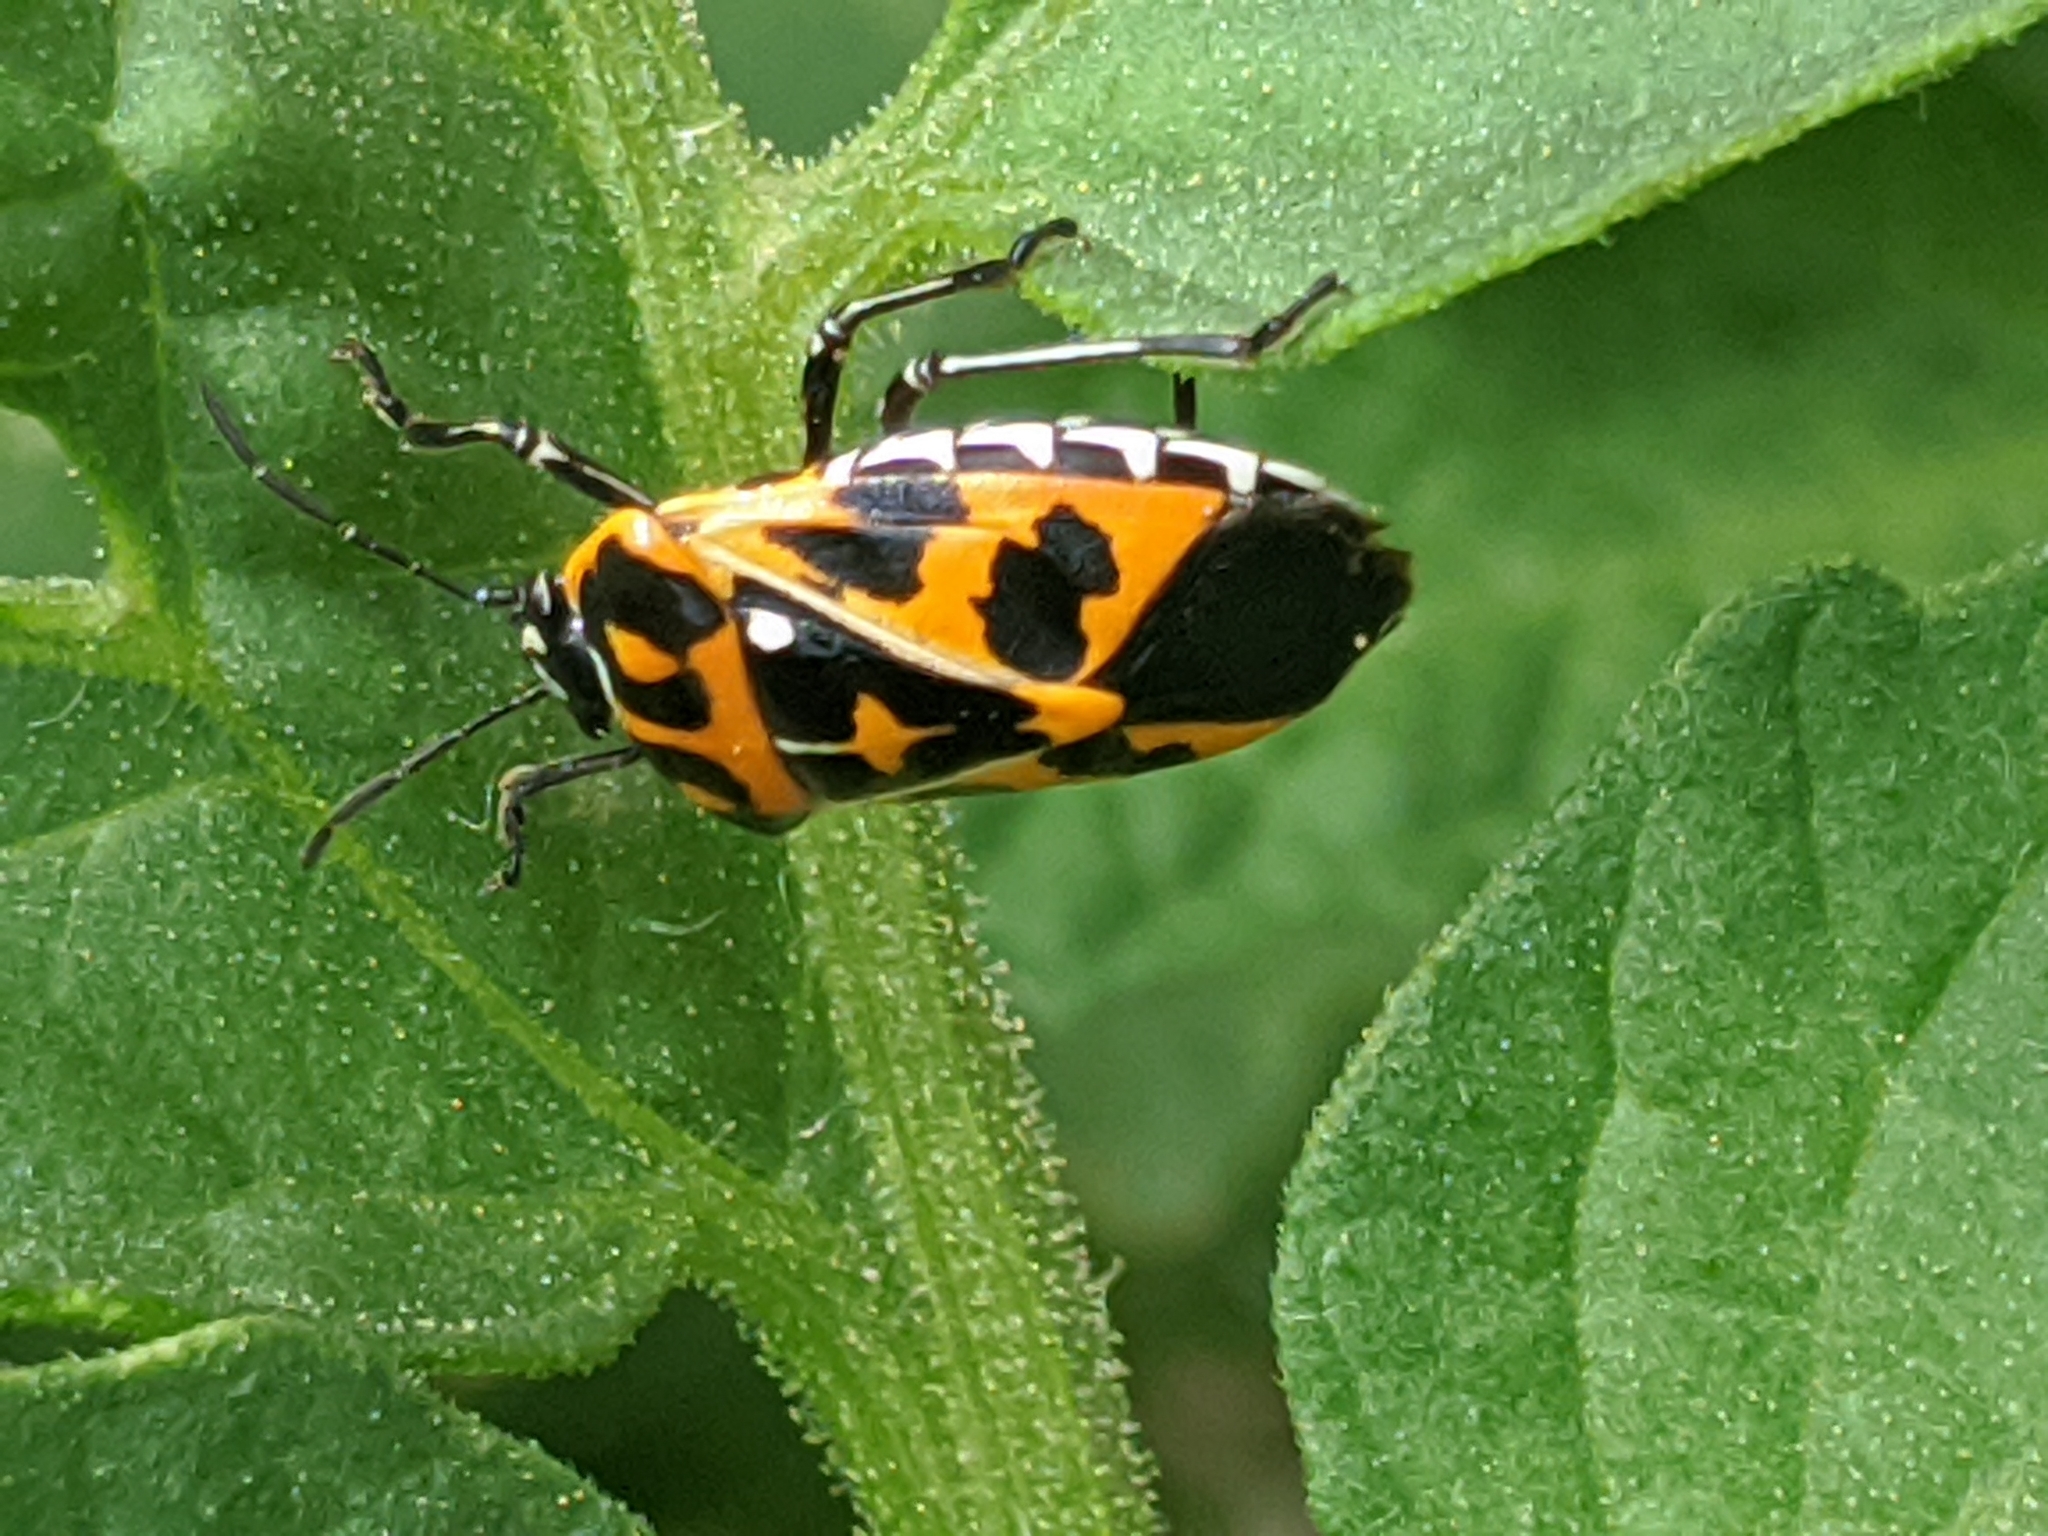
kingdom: Animalia
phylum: Arthropoda
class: Insecta
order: Hemiptera
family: Pentatomidae
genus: Murgantia
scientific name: Murgantia histrionica
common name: Harlequin bug
